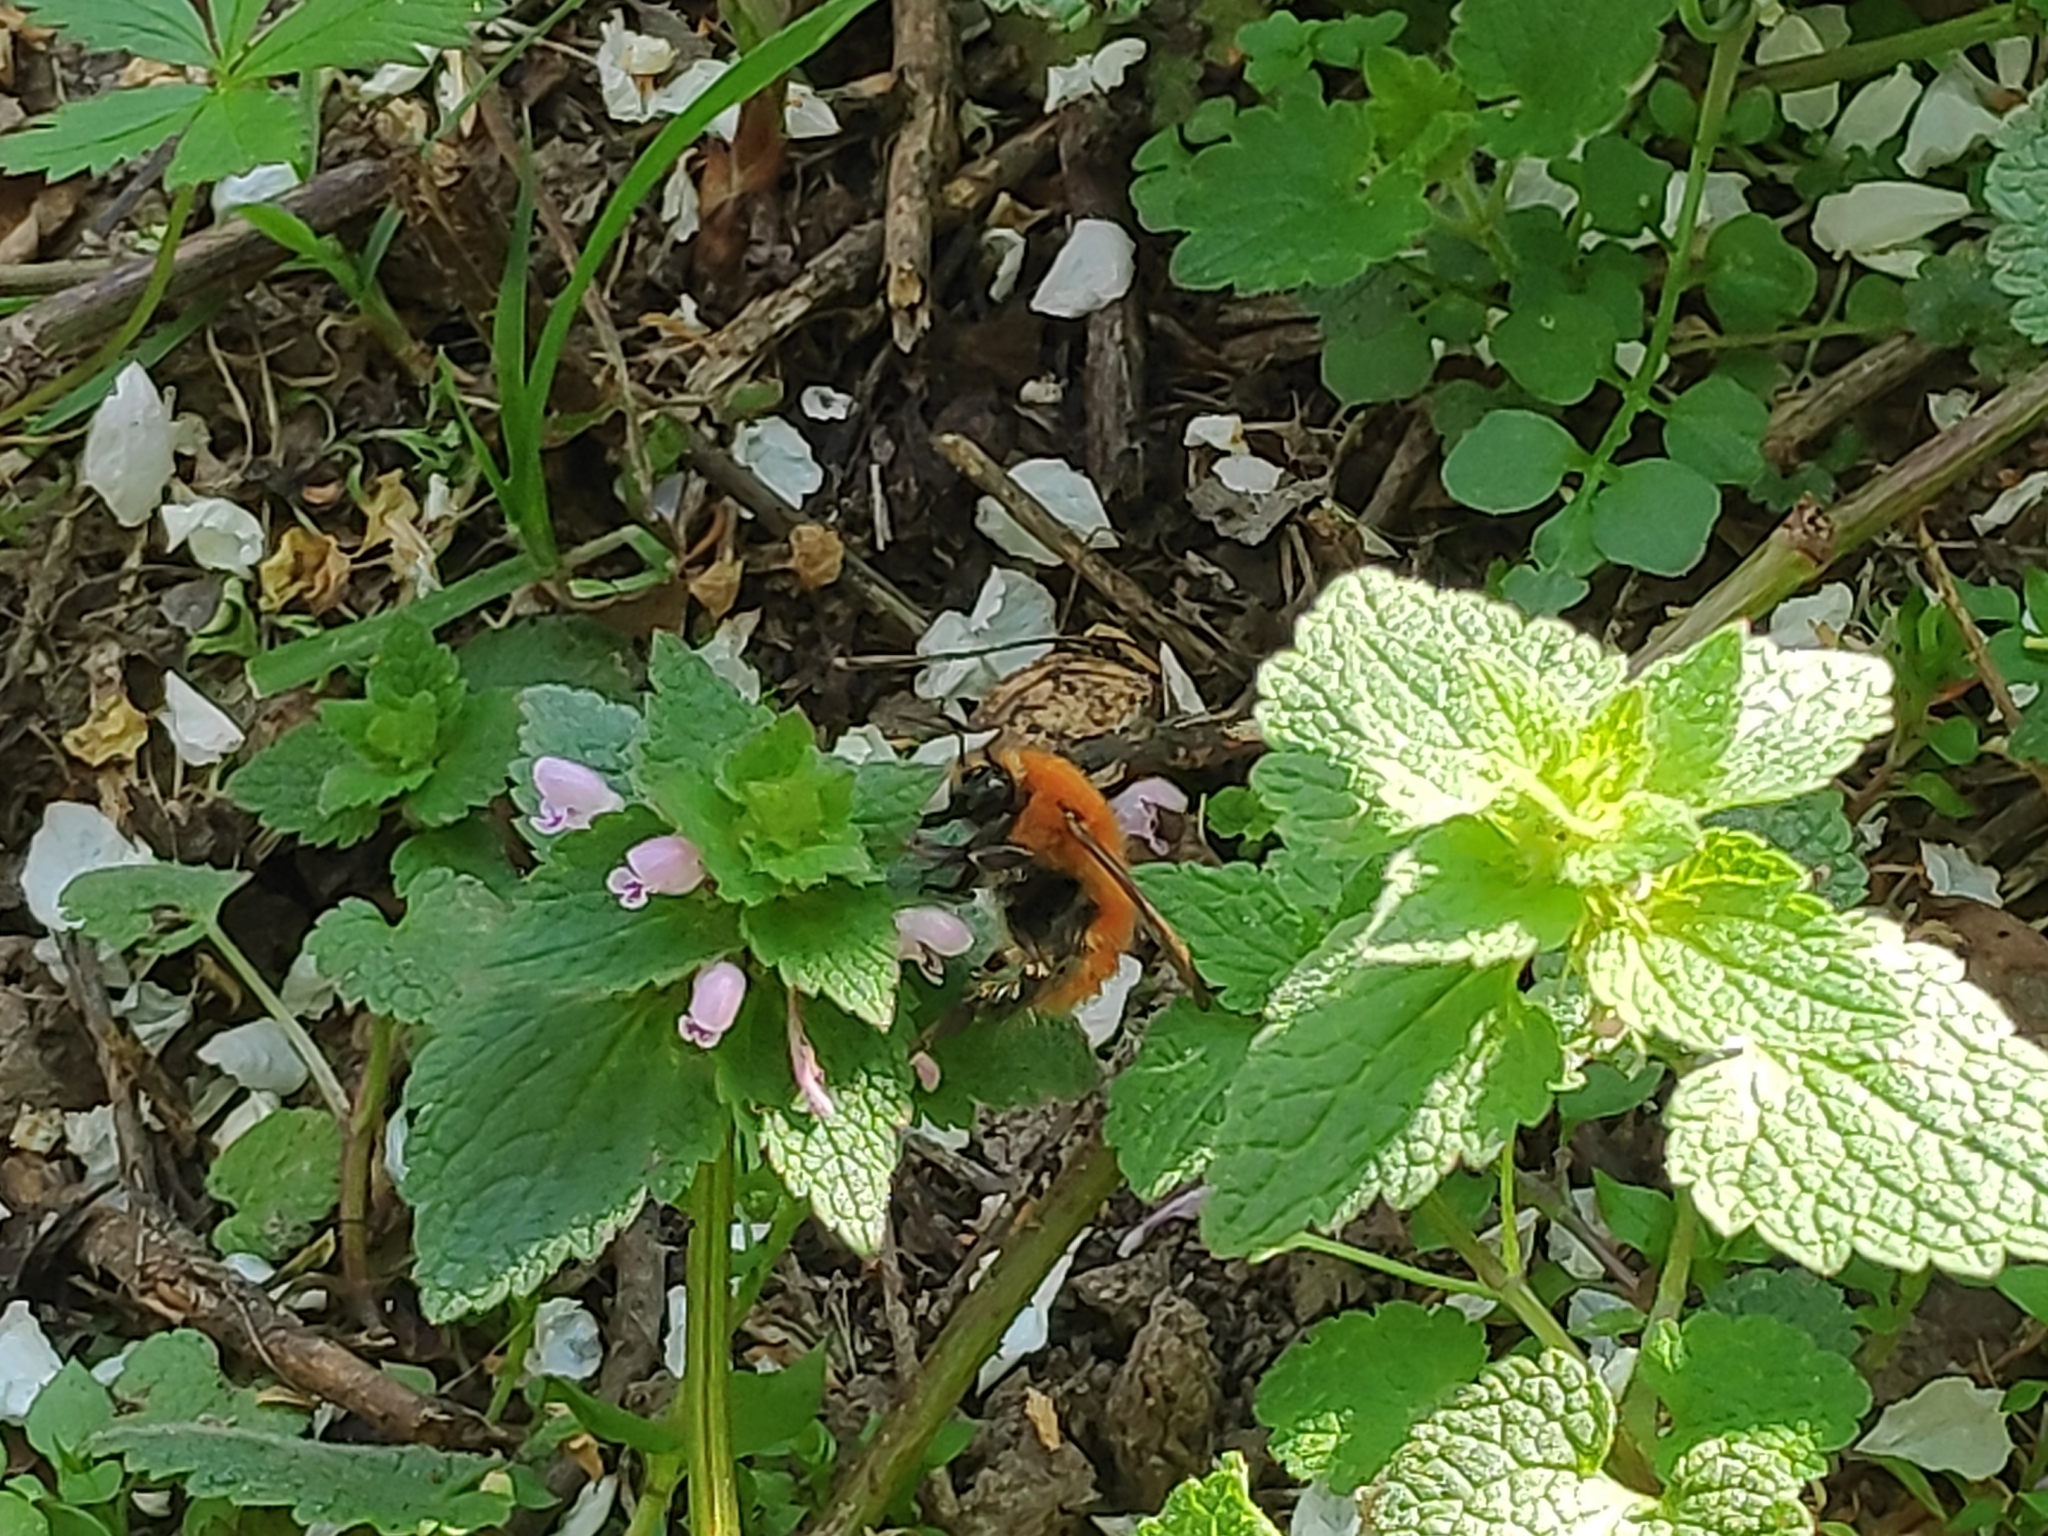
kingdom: Animalia
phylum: Arthropoda
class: Insecta
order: Hymenoptera
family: Apidae
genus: Bombus
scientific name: Bombus pascuorum
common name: Common carder bee
